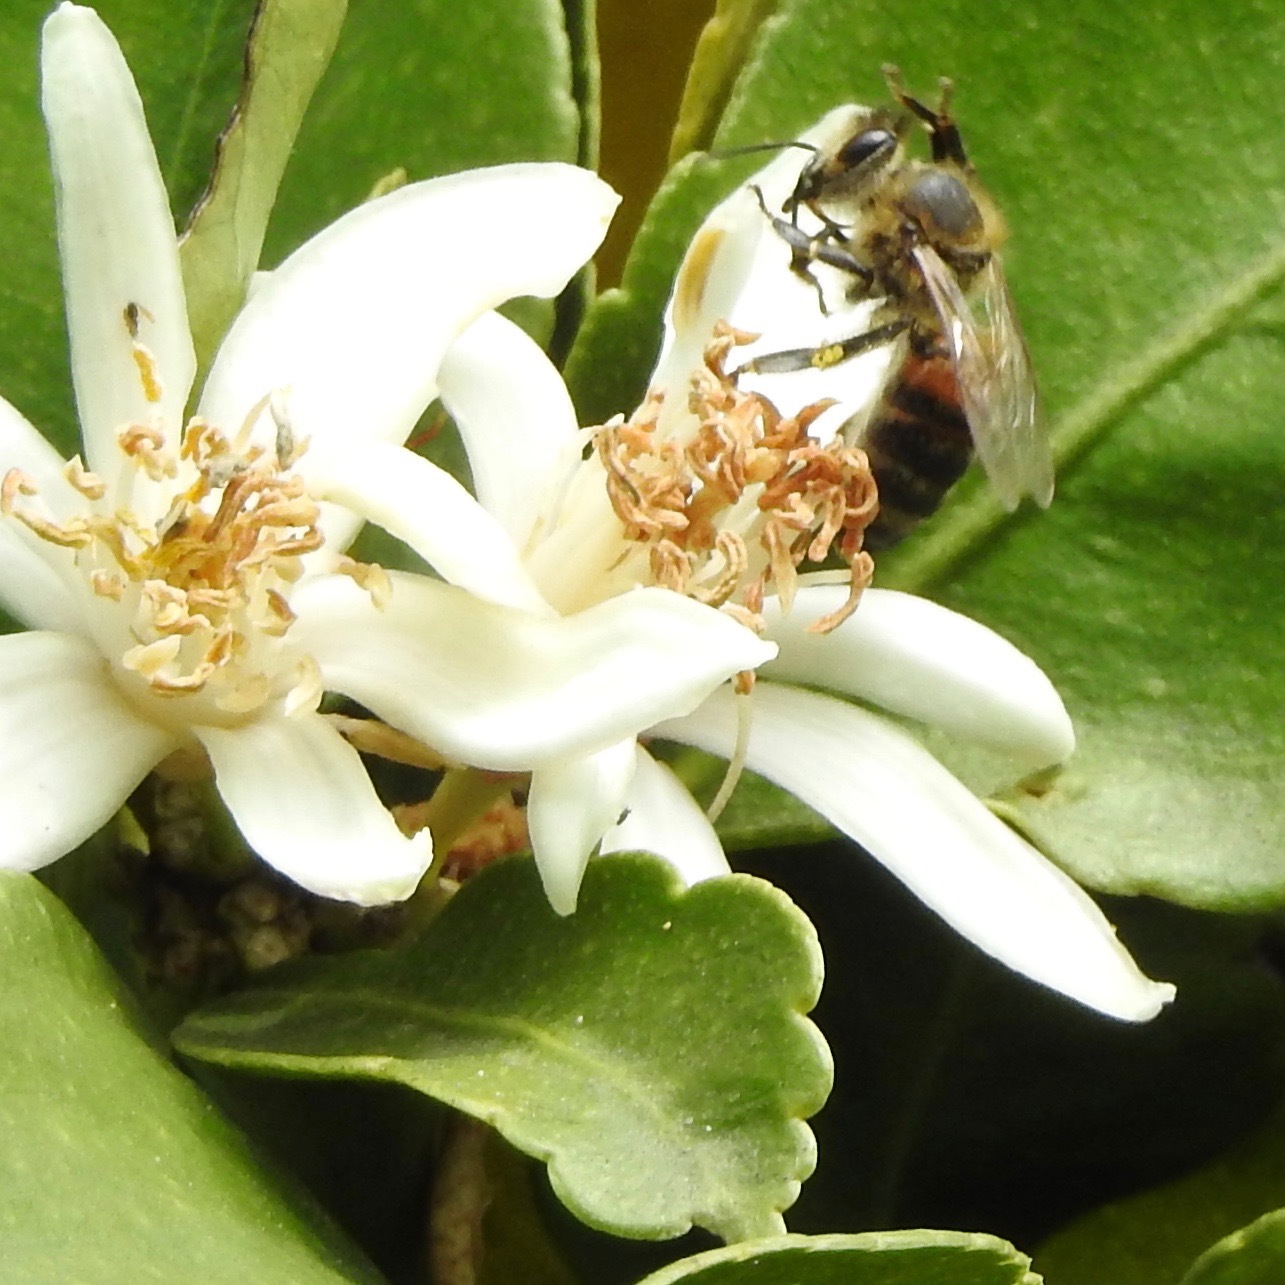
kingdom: Animalia
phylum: Arthropoda
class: Insecta
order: Hymenoptera
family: Apidae
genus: Apis
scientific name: Apis mellifera
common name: Honey bee
